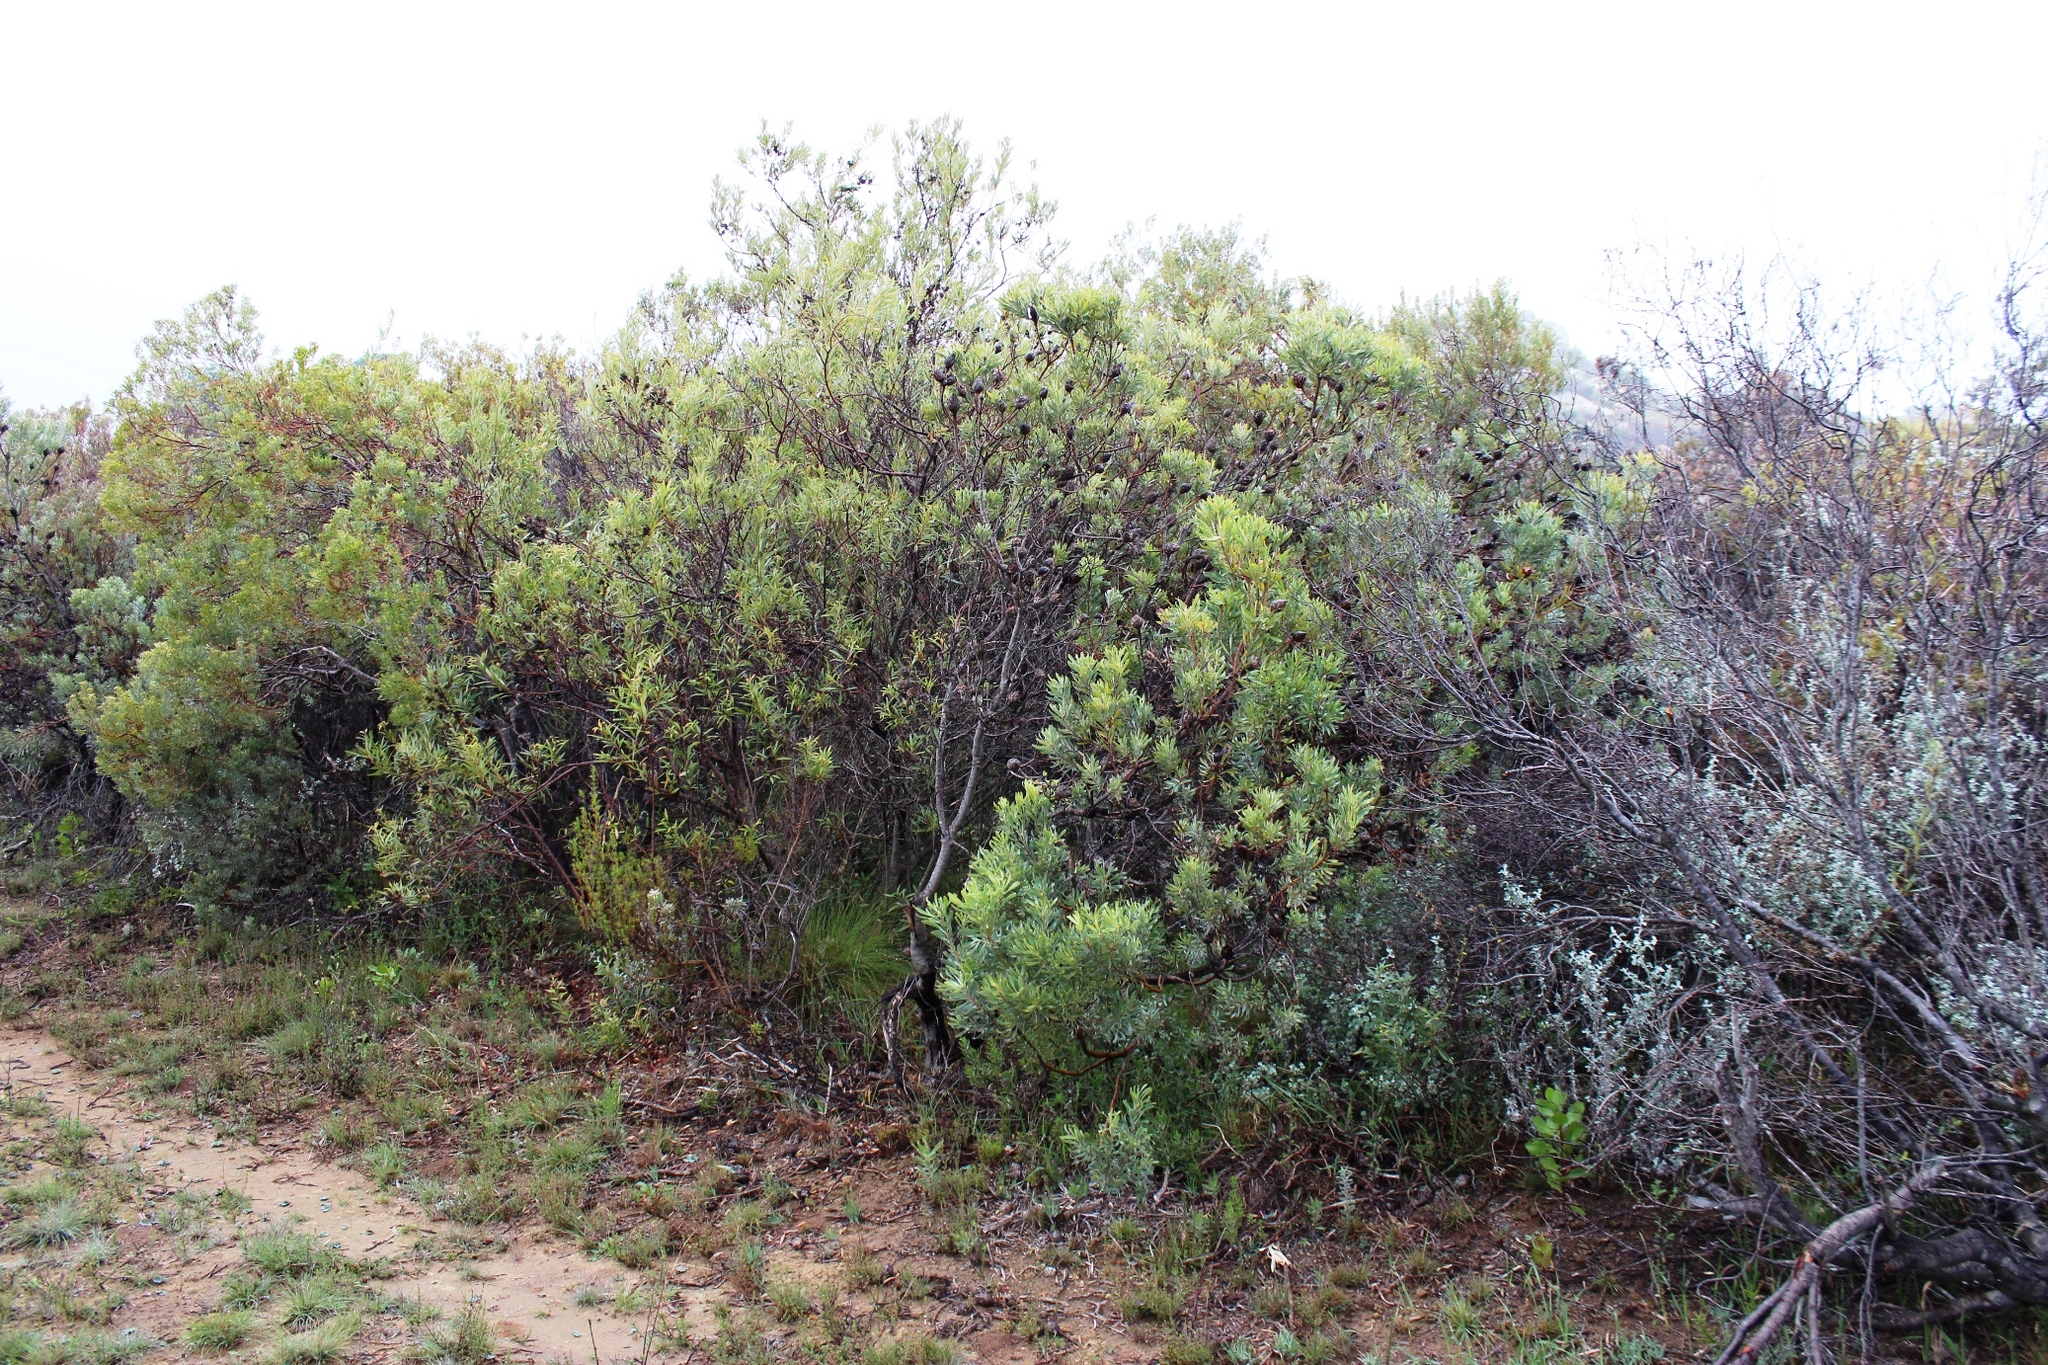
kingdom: Plantae
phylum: Tracheophyta
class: Magnoliopsida
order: Proteales
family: Proteaceae
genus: Leucadendron
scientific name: Leucadendron rubrum
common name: Spinning top
